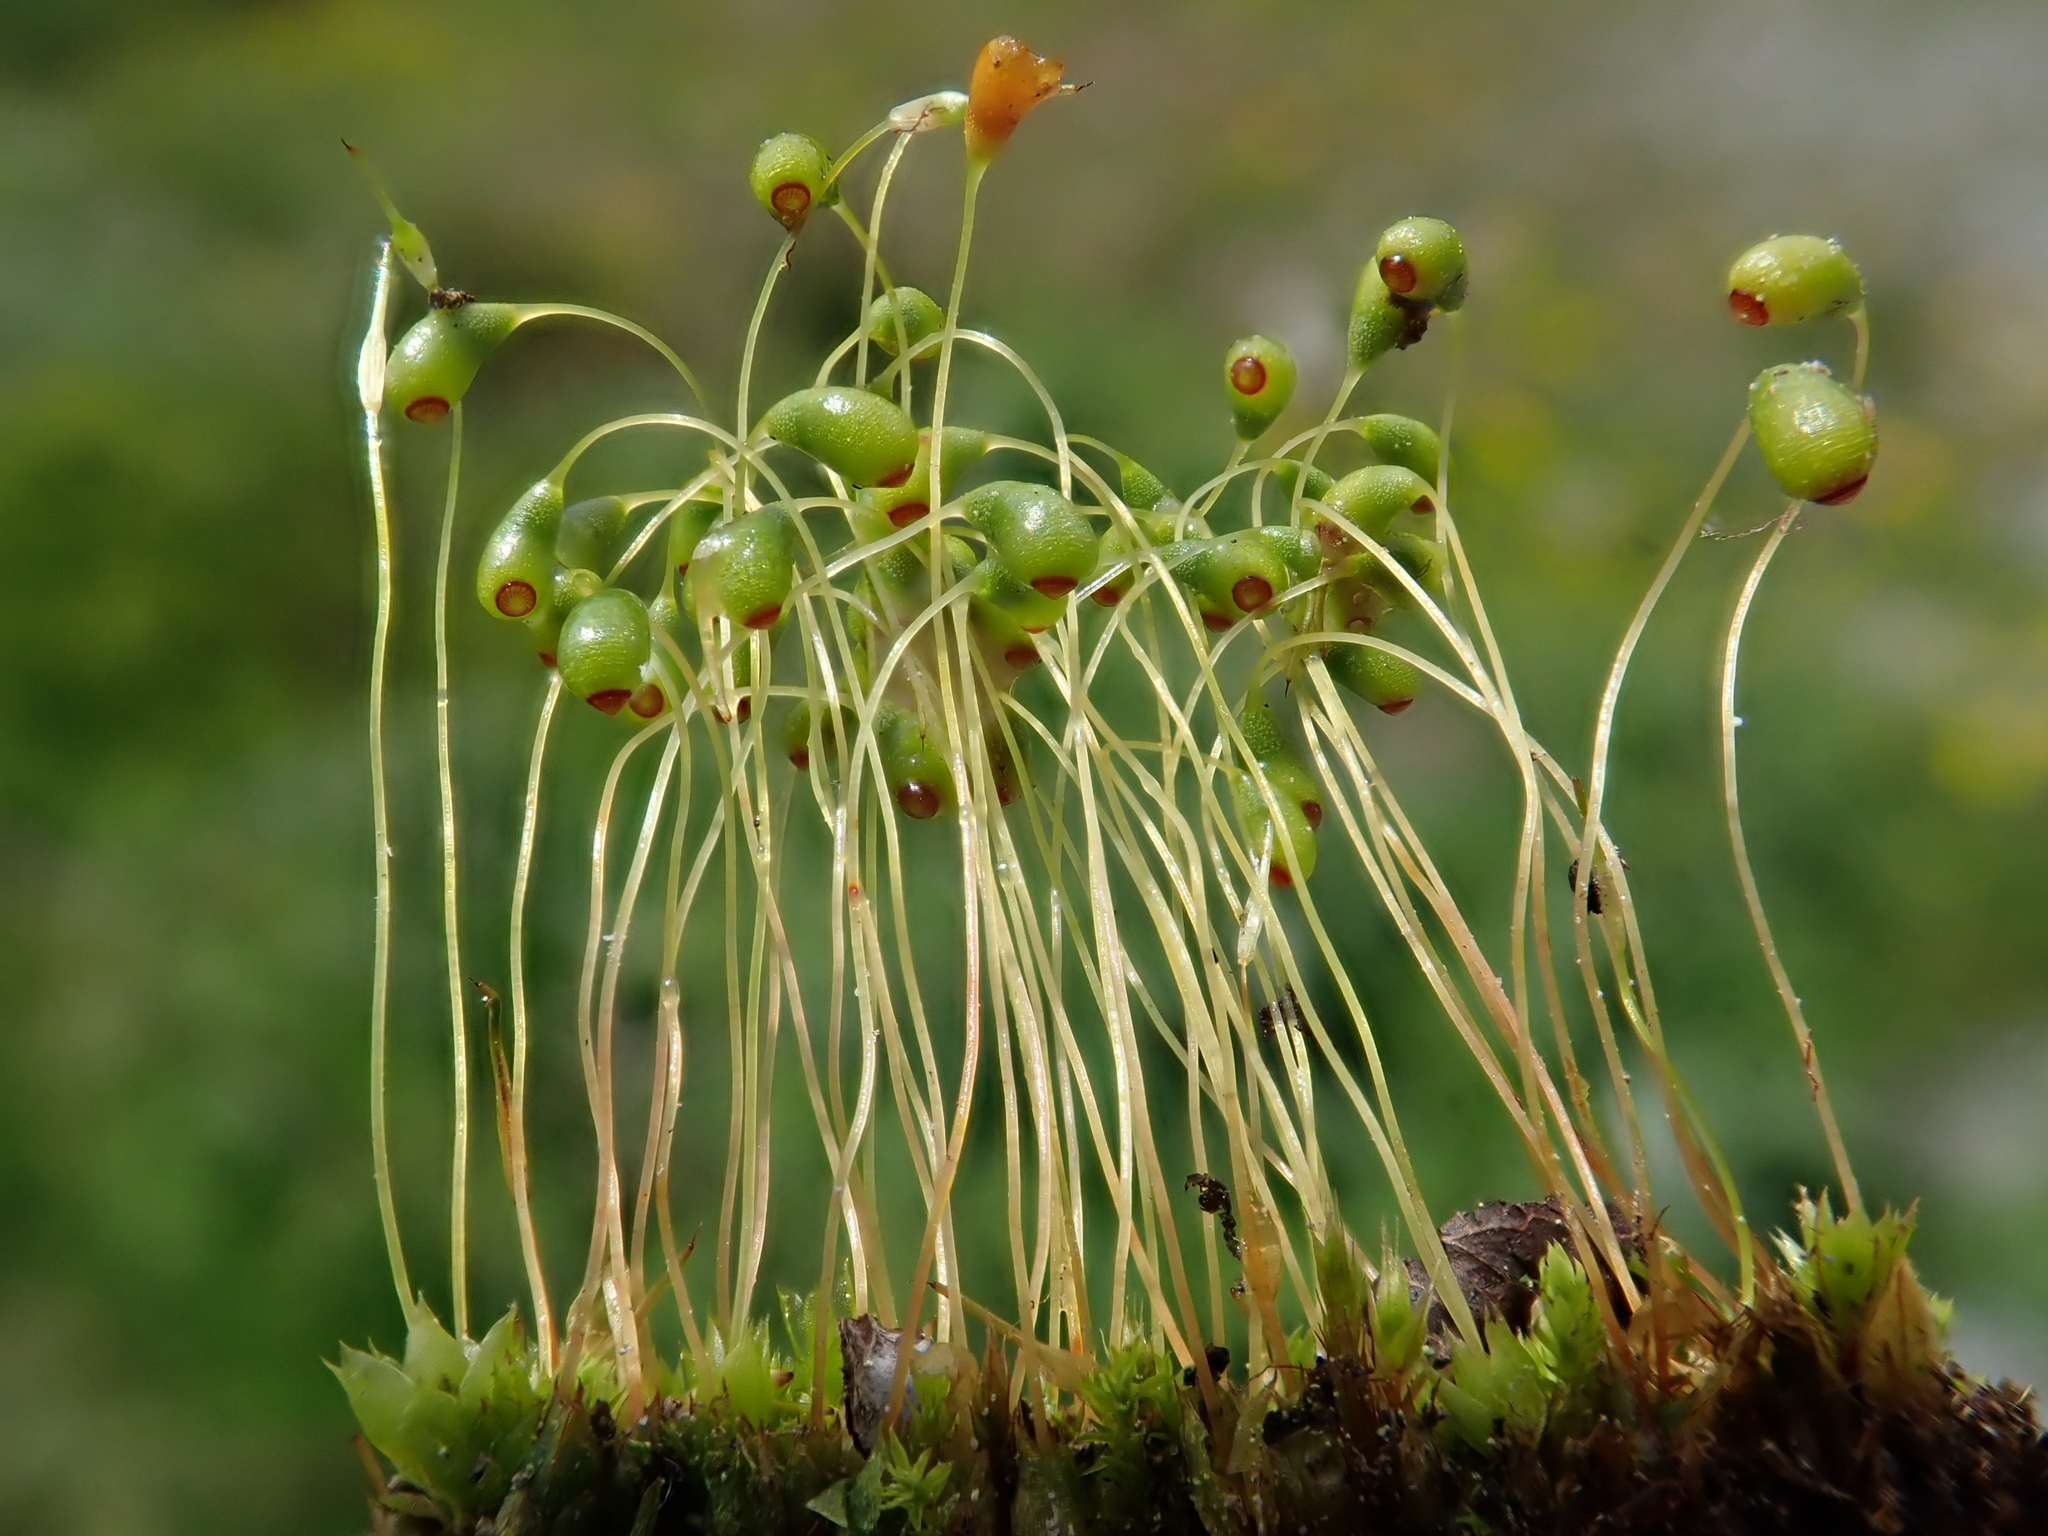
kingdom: Plantae
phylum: Bryophyta
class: Bryopsida
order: Funariales
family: Funariaceae
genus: Funaria
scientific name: Funaria hygrometrica
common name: Common cord moss
